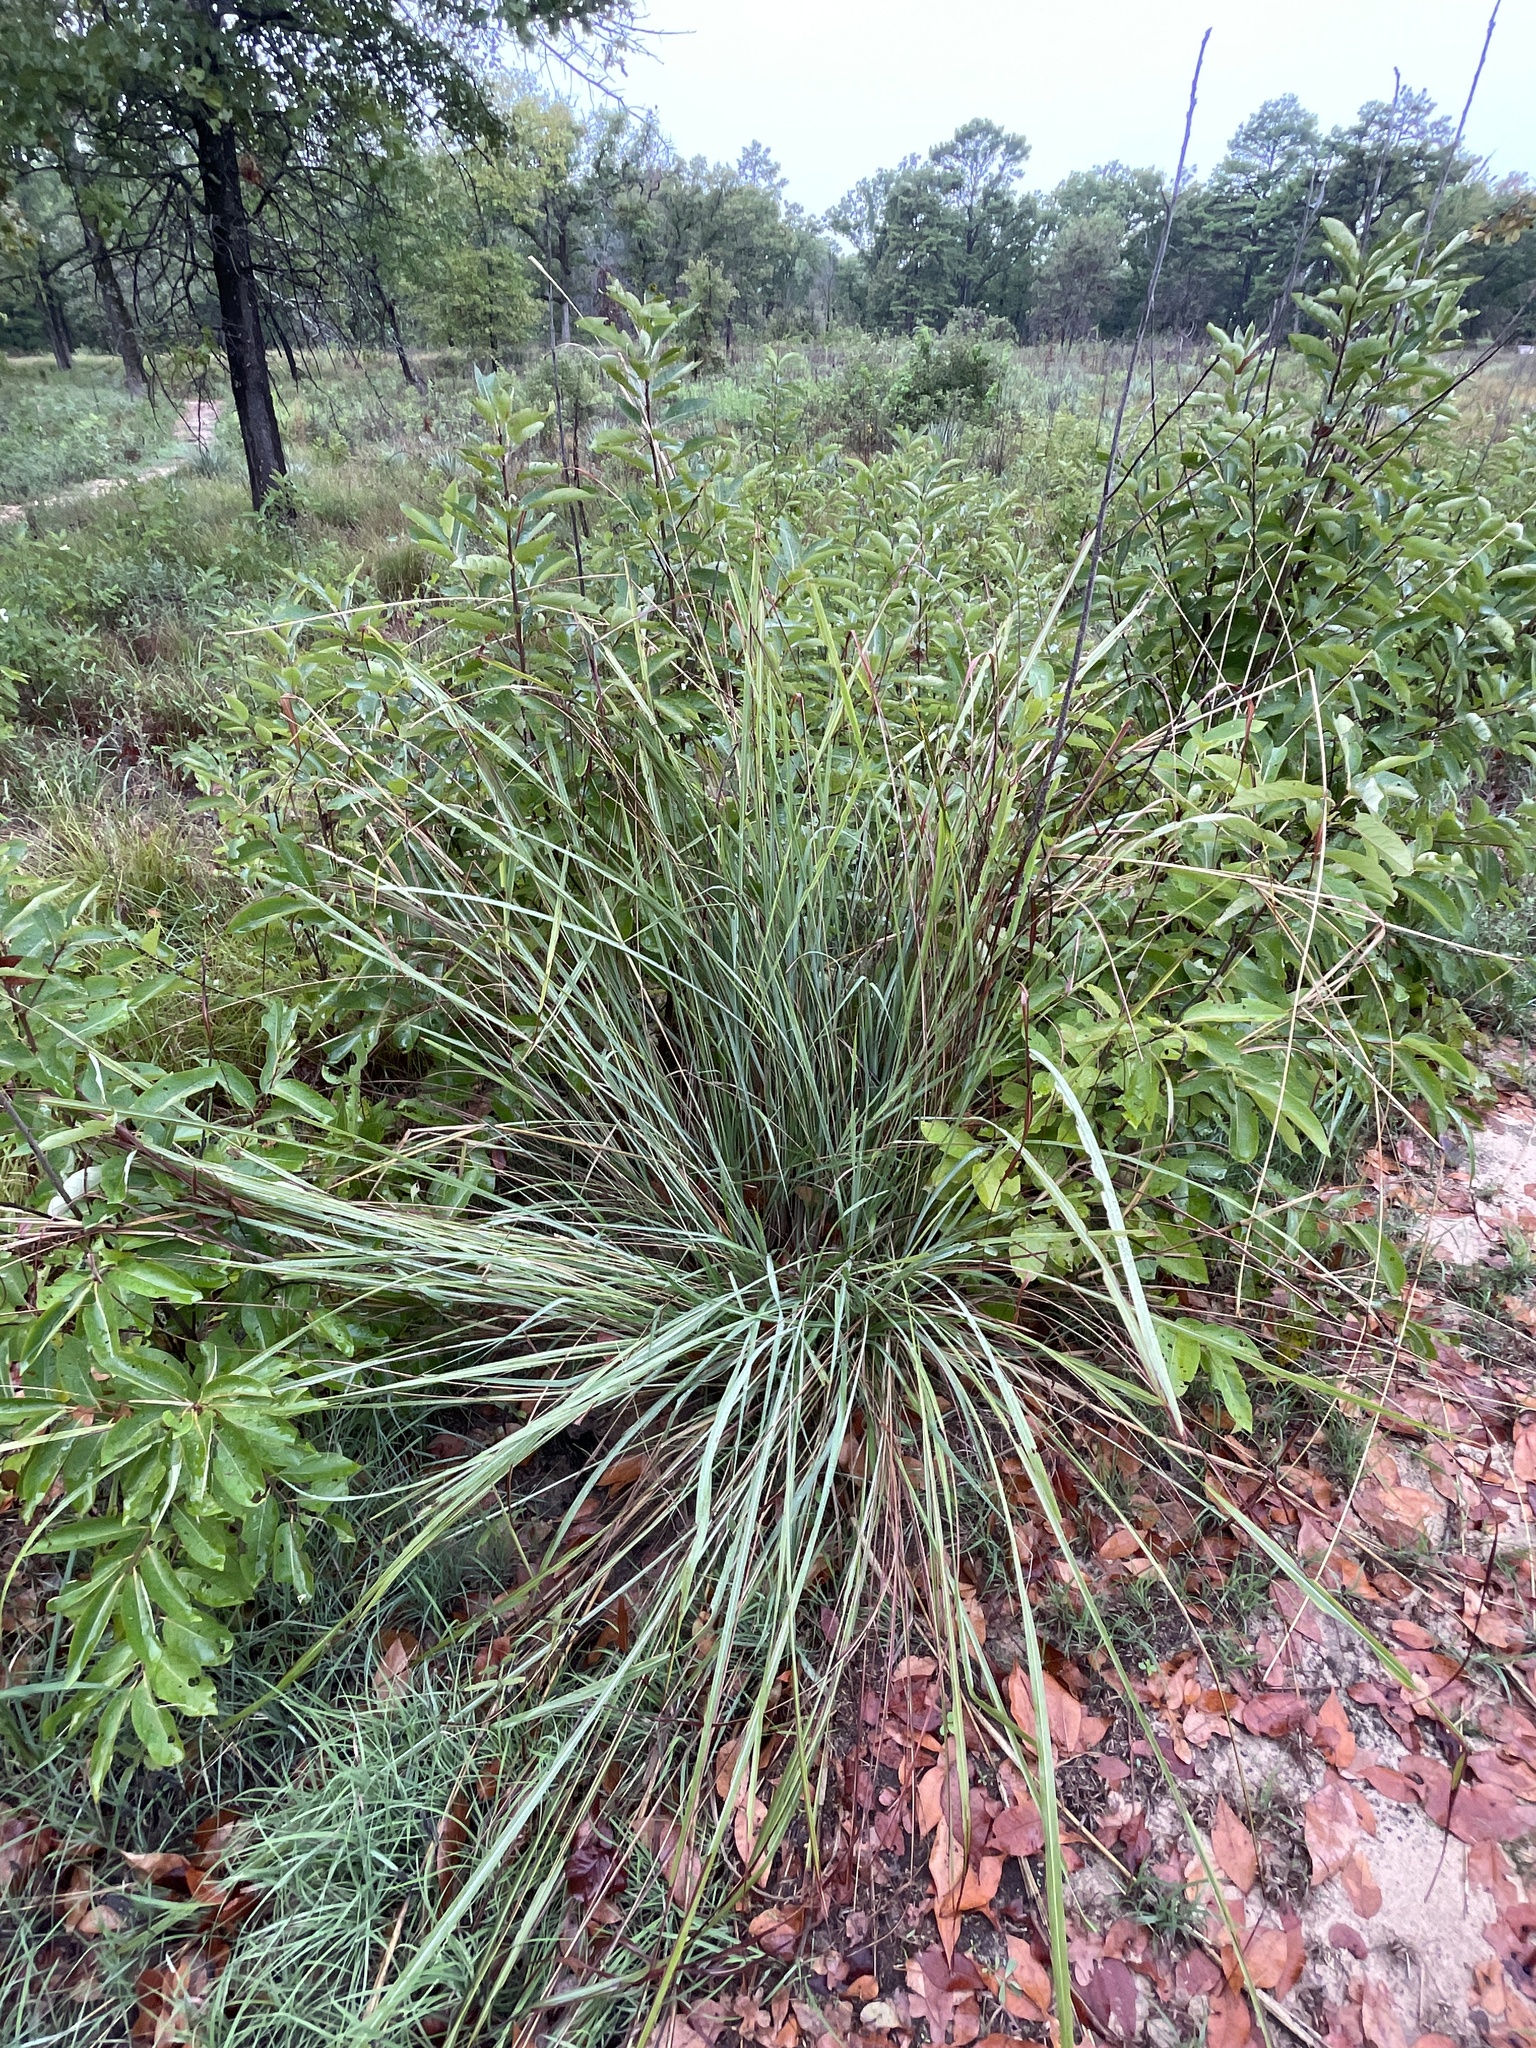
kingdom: Plantae
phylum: Tracheophyta
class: Liliopsida
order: Poales
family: Poaceae
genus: Tripsacum
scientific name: Tripsacum dactyloides
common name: Buffalo-grass
